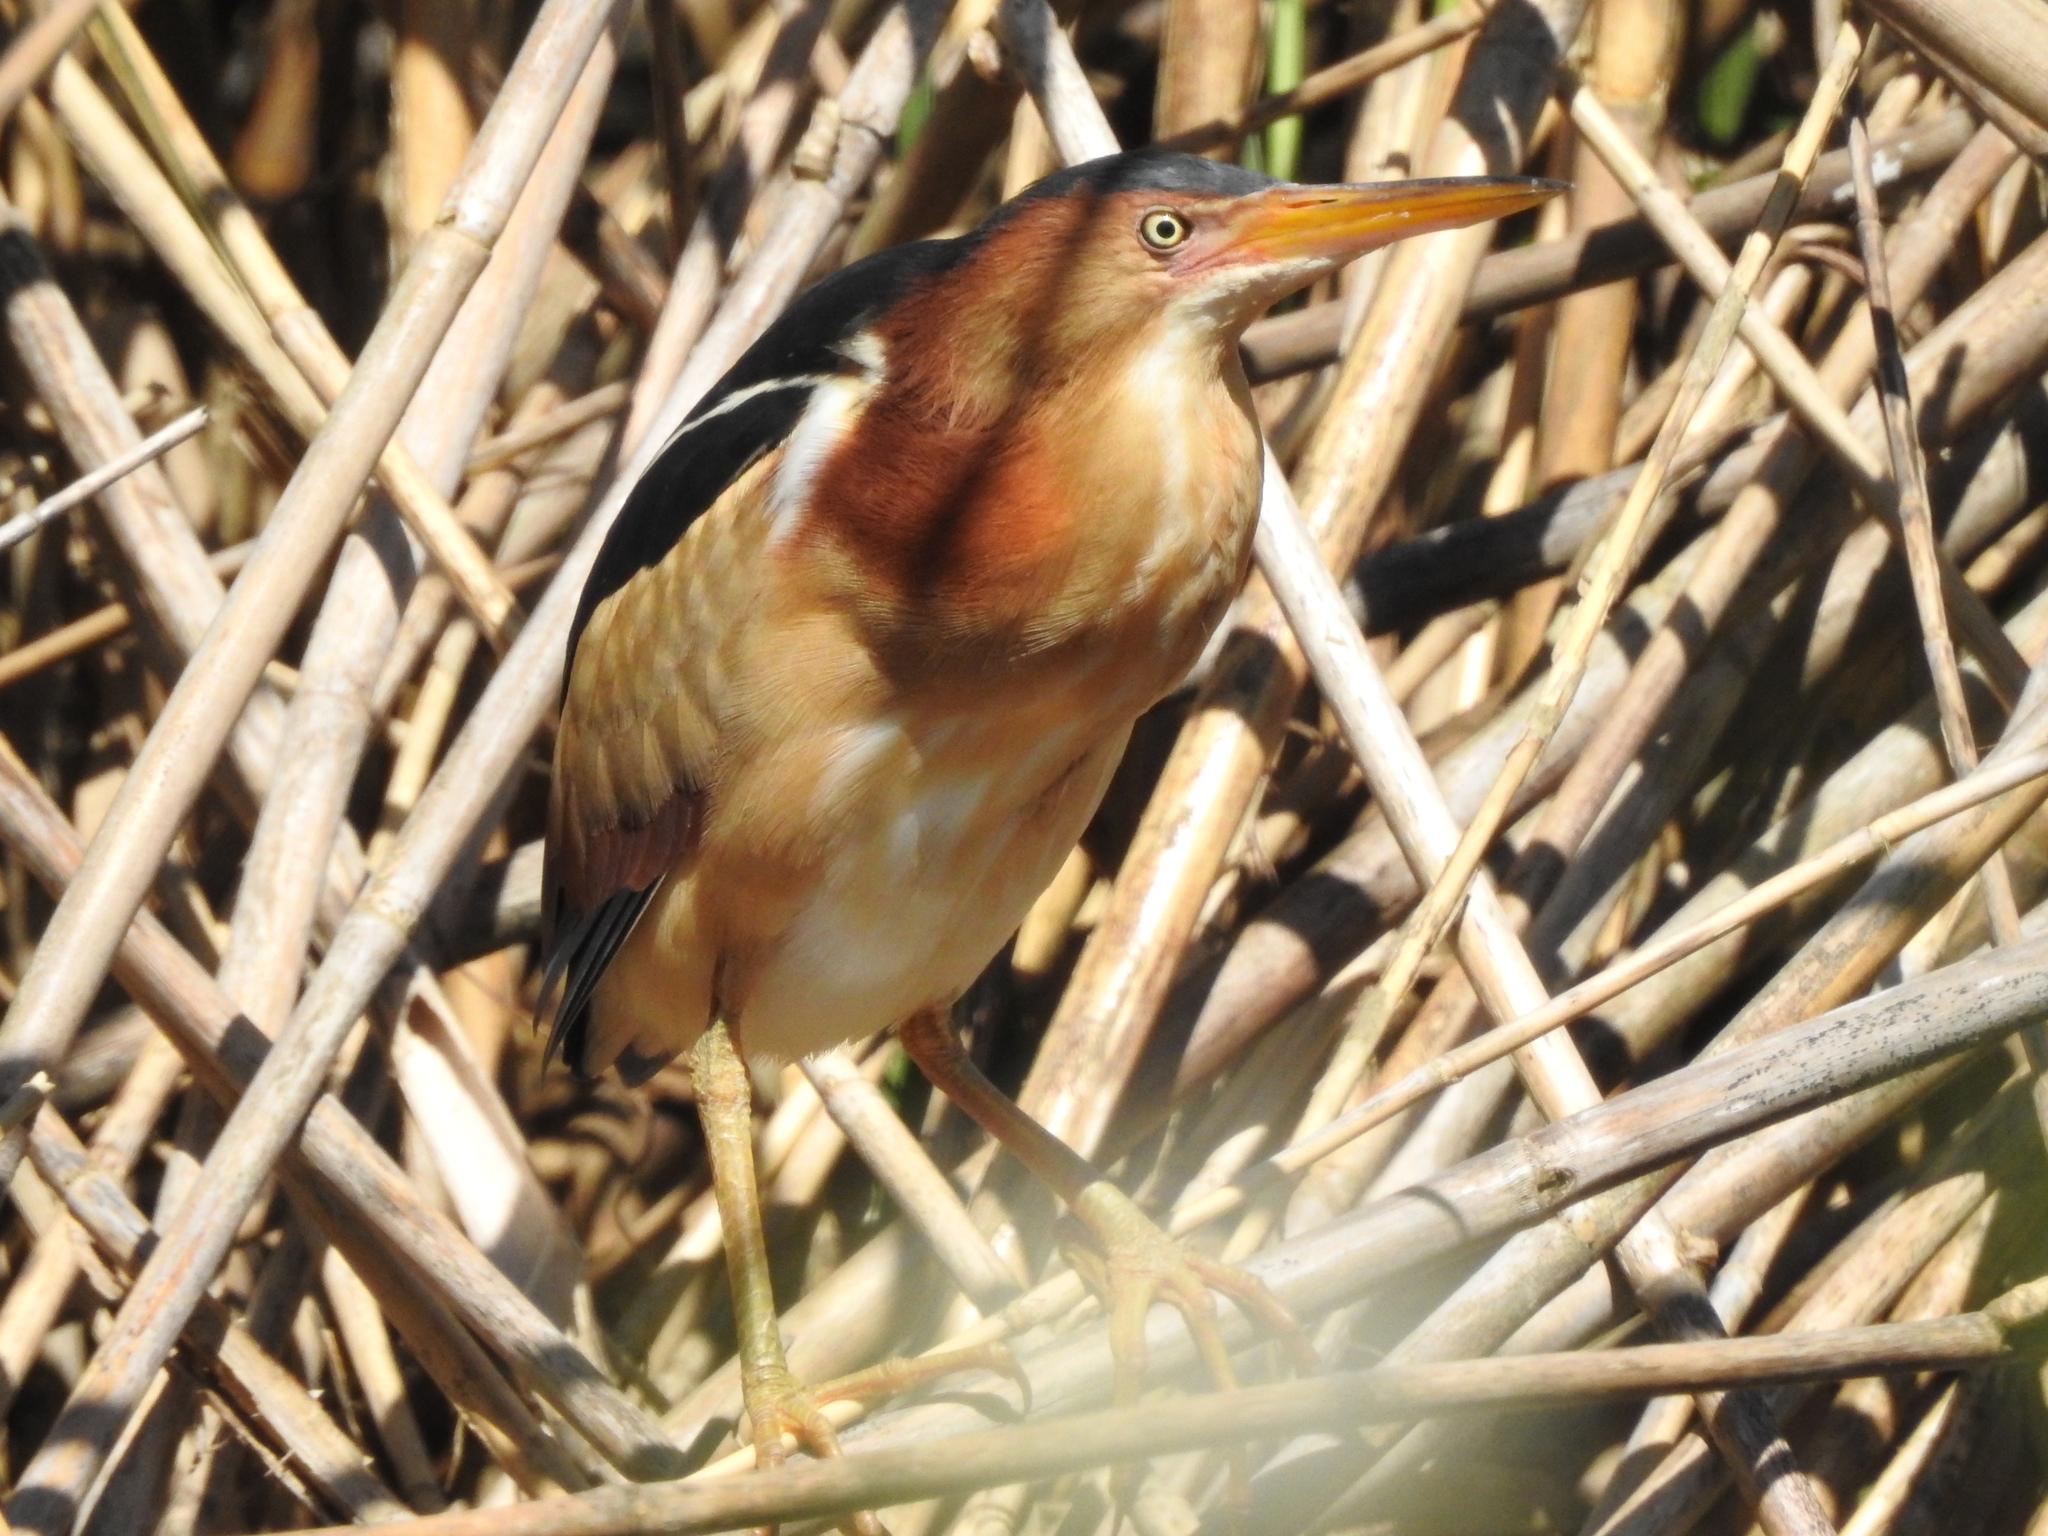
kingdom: Animalia
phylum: Chordata
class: Aves
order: Pelecaniformes
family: Ardeidae
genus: Ixobrychus
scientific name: Ixobrychus exilis
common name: Least bittern
